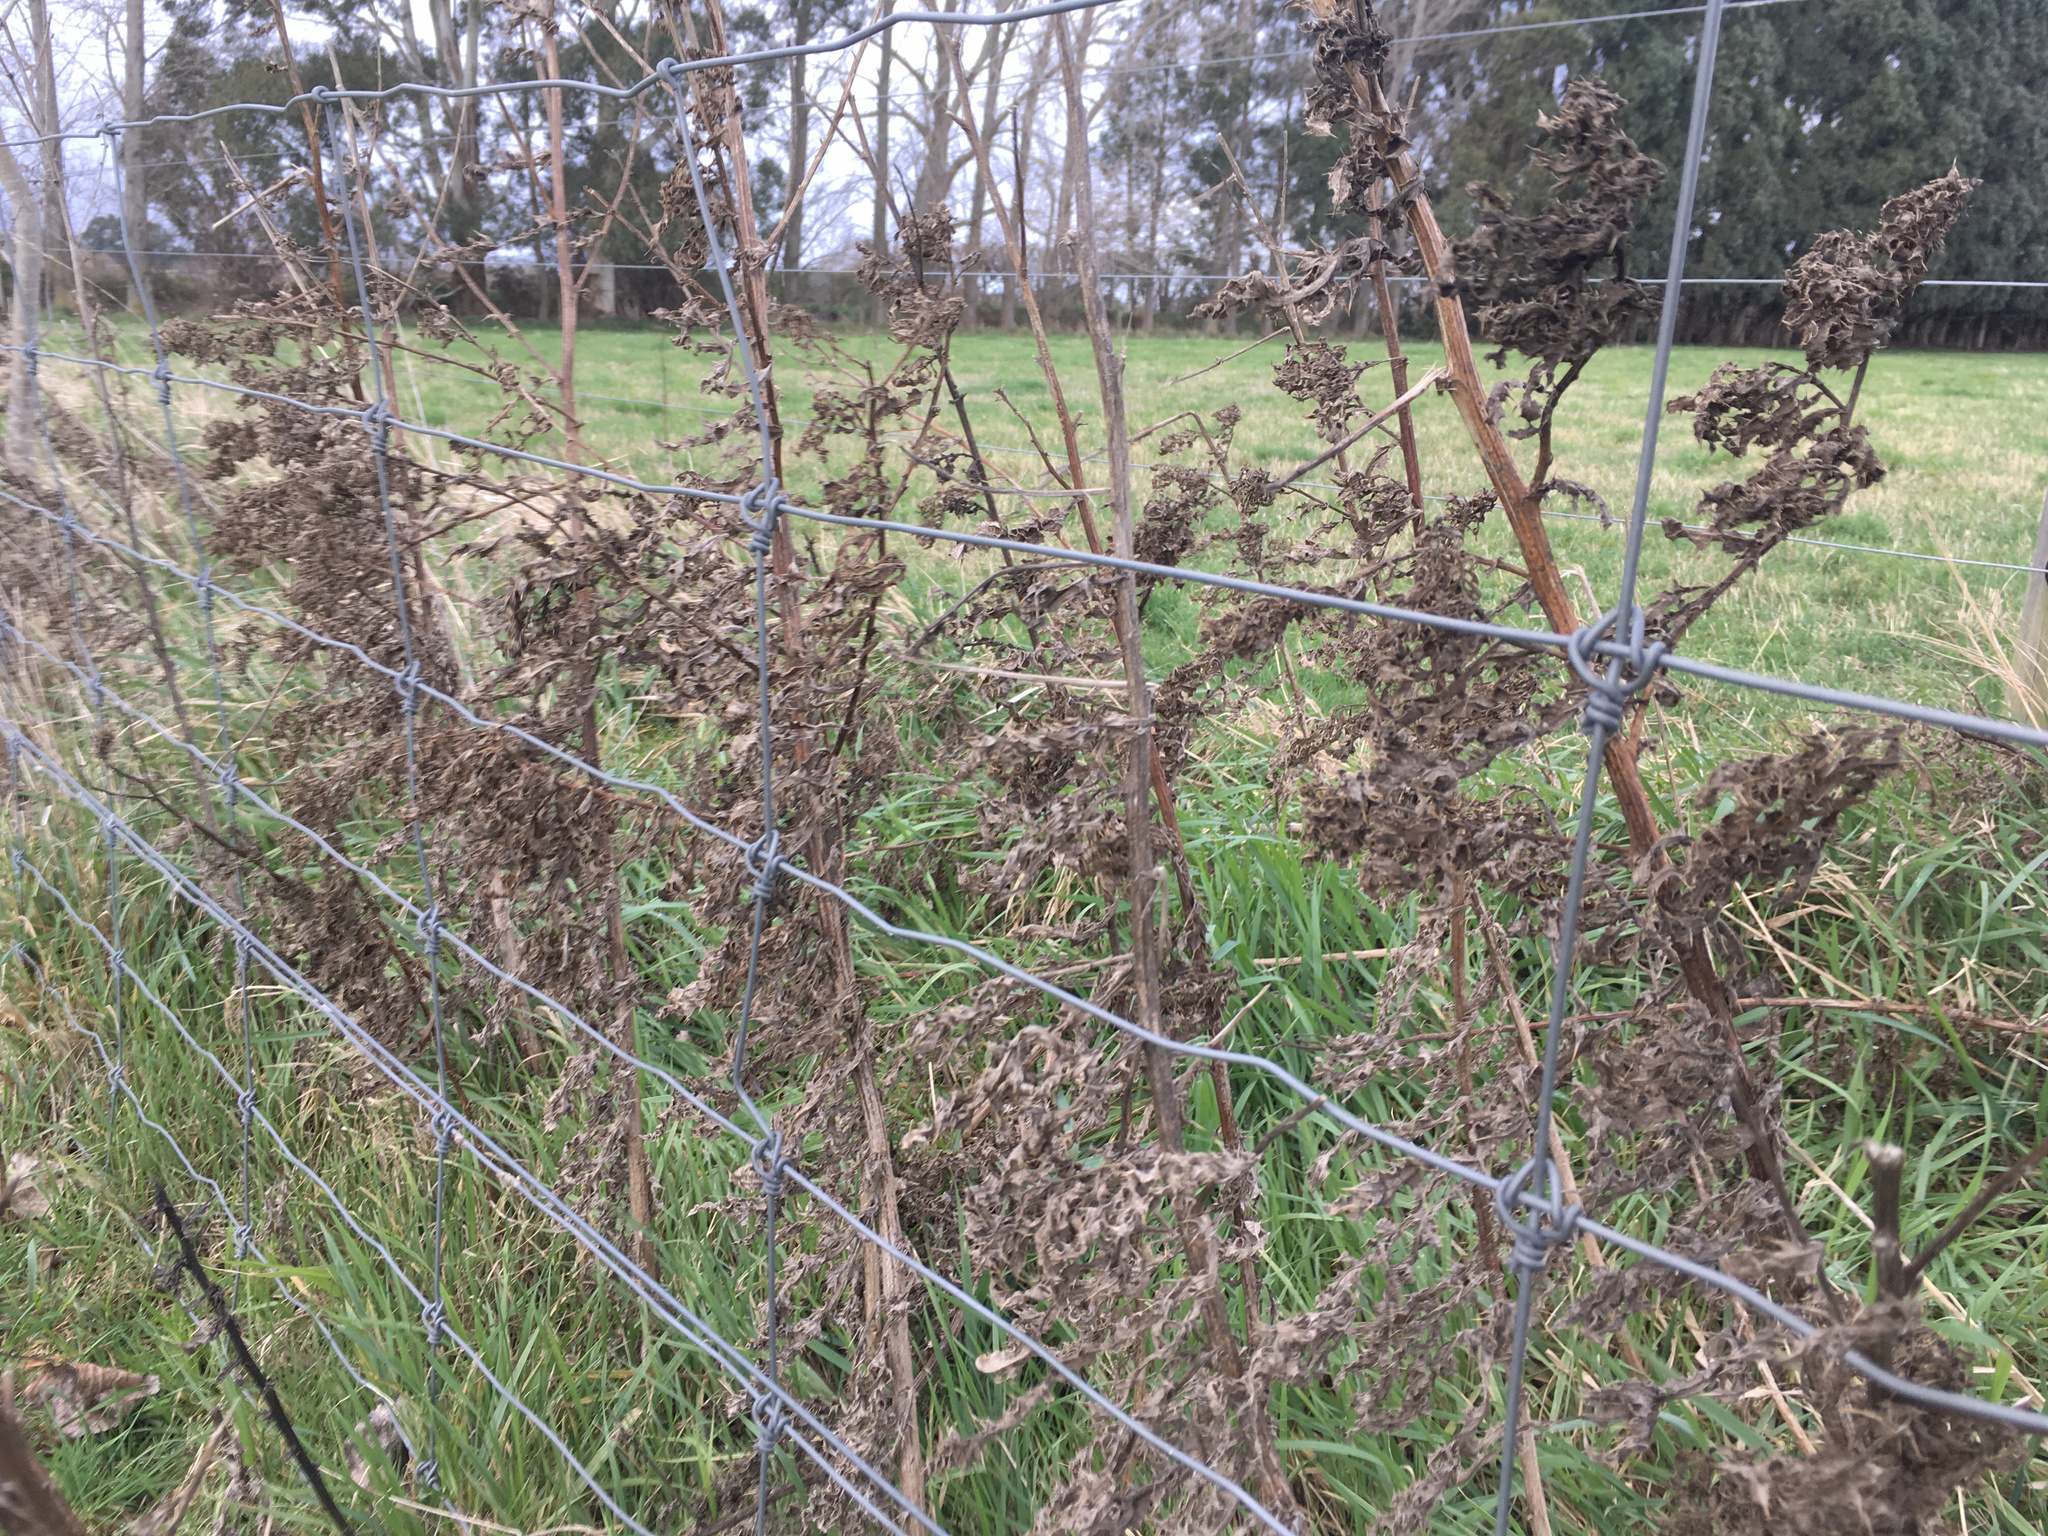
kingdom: Plantae
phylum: Tracheophyta
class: Magnoliopsida
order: Asterales
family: Asteraceae
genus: Cirsium
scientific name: Cirsium arvense
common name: Creeping thistle
